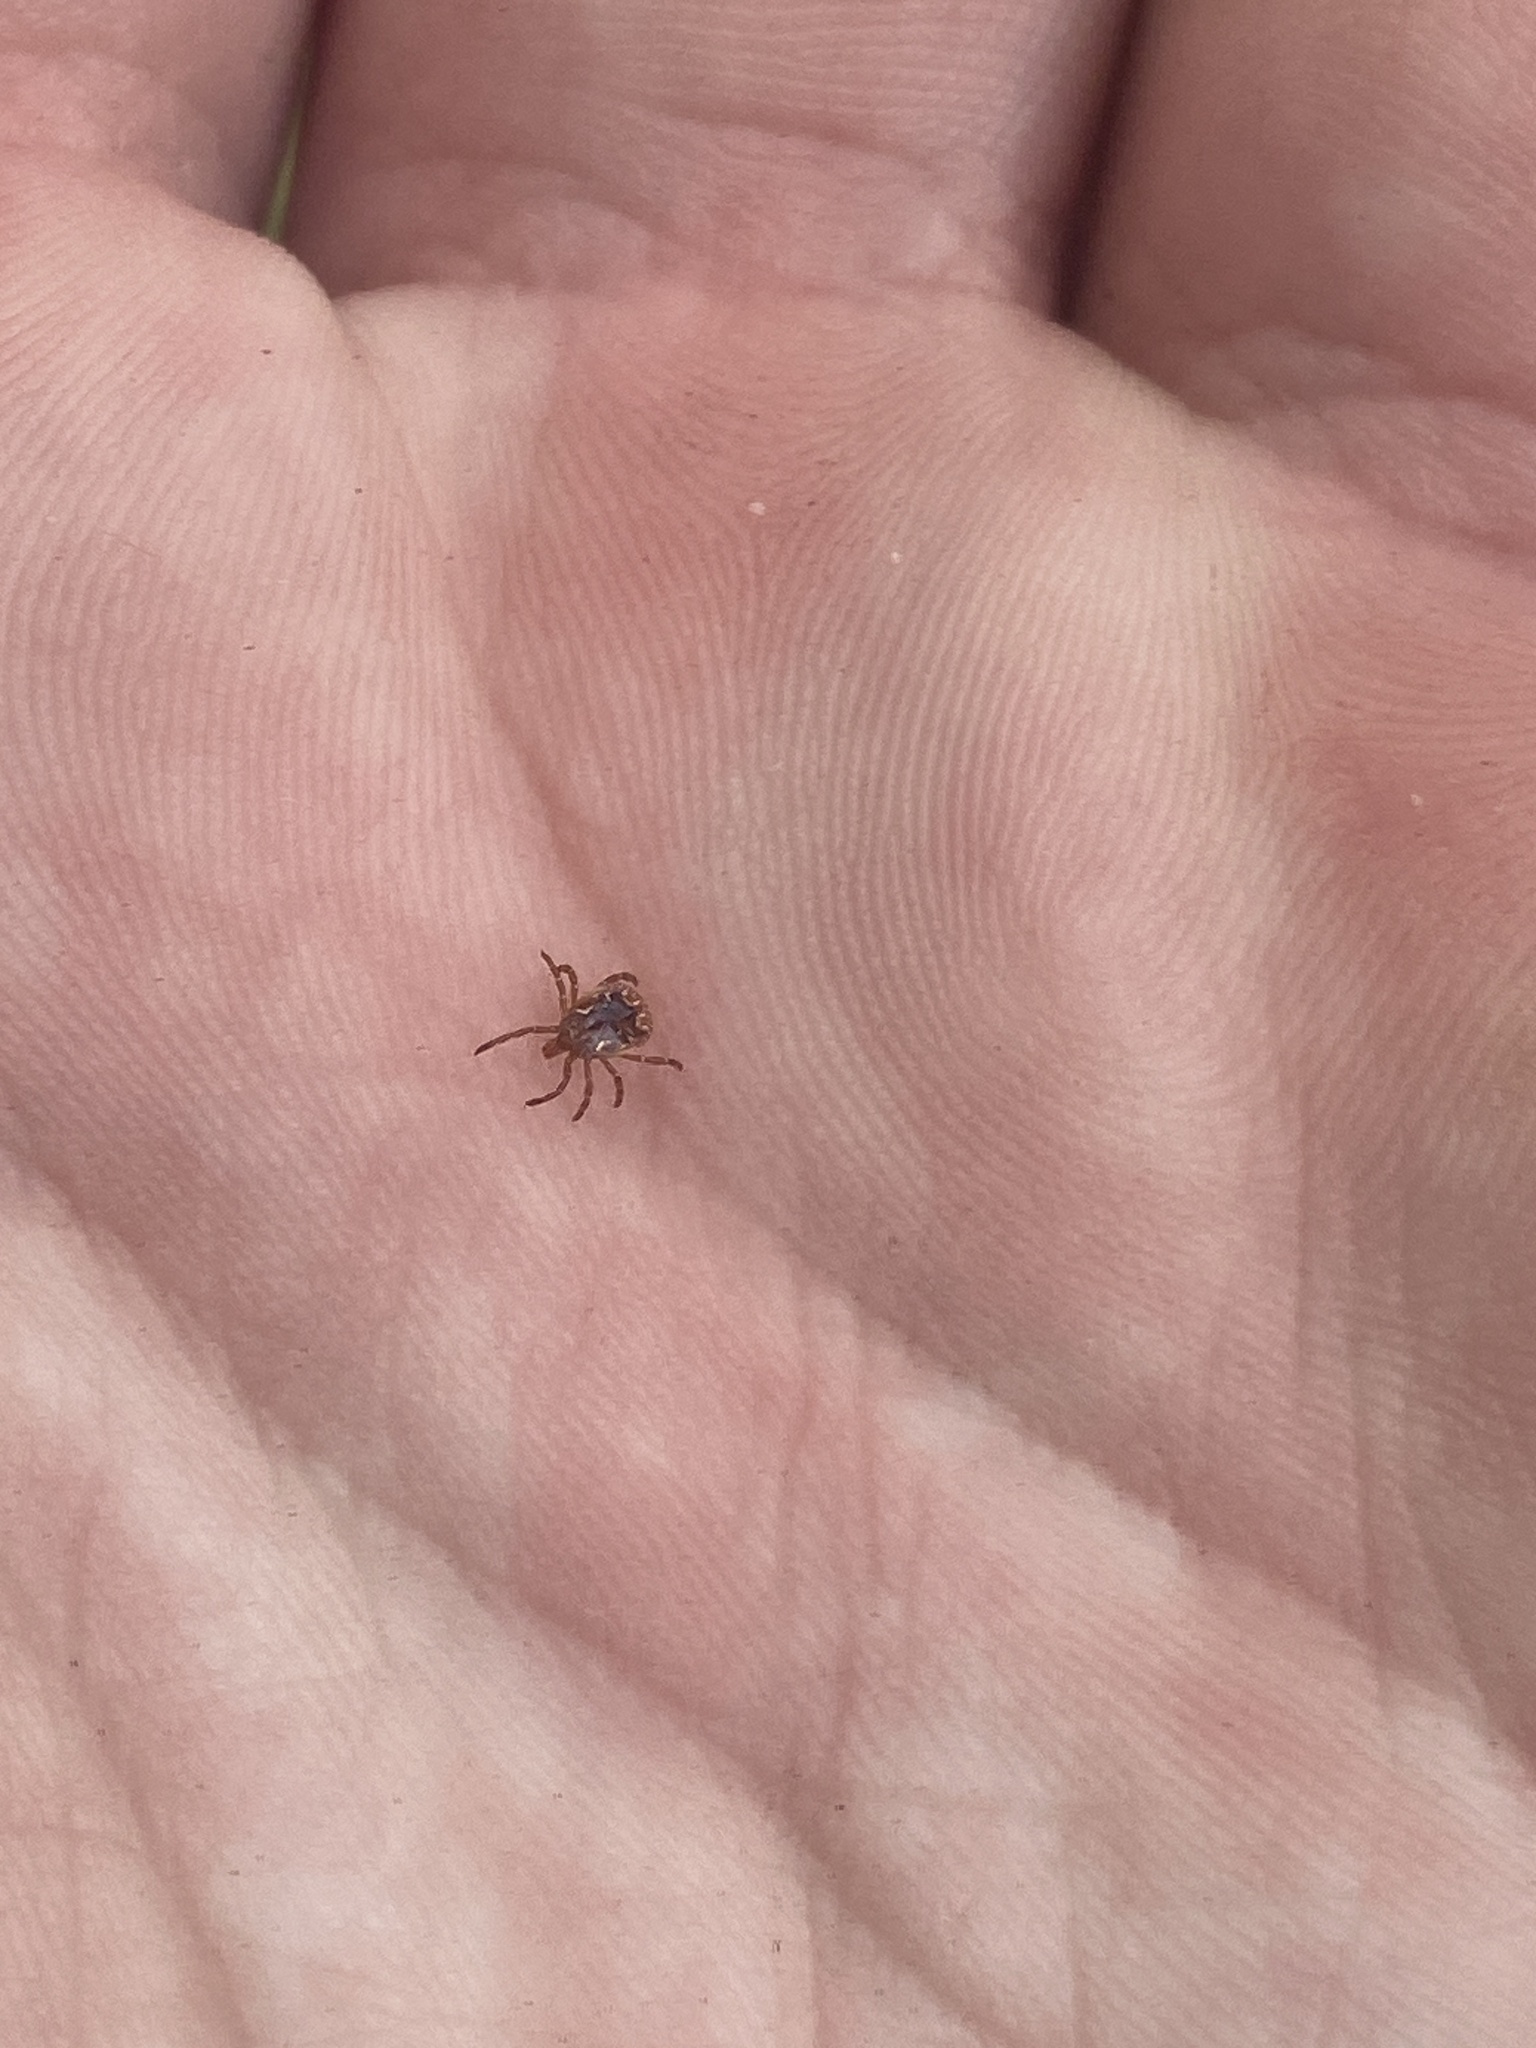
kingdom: Animalia
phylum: Arthropoda
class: Arachnida
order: Ixodida
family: Ixodidae
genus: Amblyomma
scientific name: Amblyomma americanum
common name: Lone star tick
